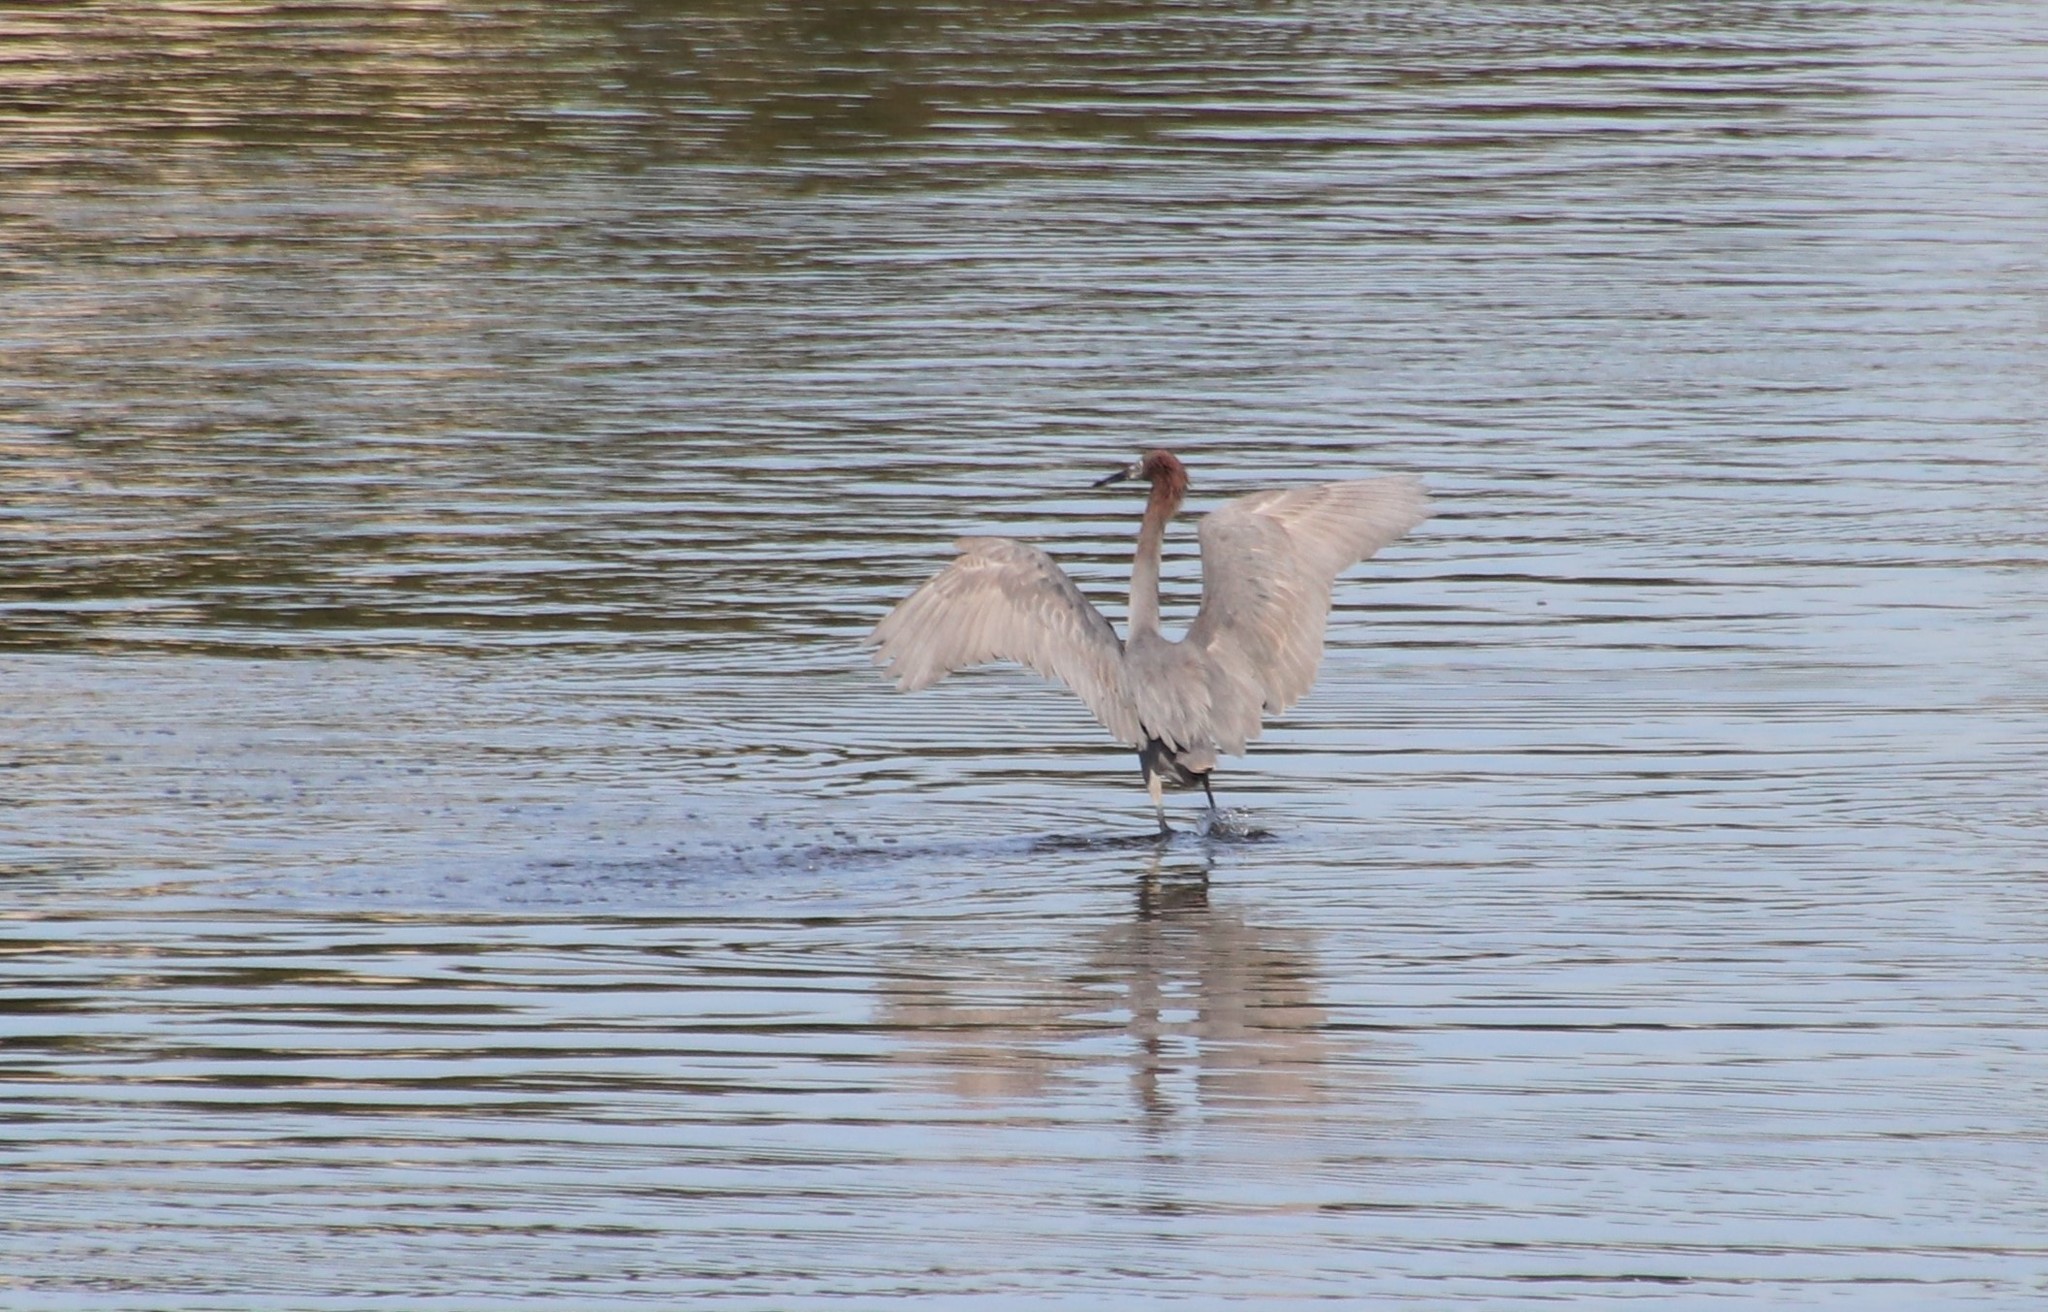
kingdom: Animalia
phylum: Chordata
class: Aves
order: Pelecaniformes
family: Ardeidae
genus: Egretta
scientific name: Egretta rufescens
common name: Reddish egret
